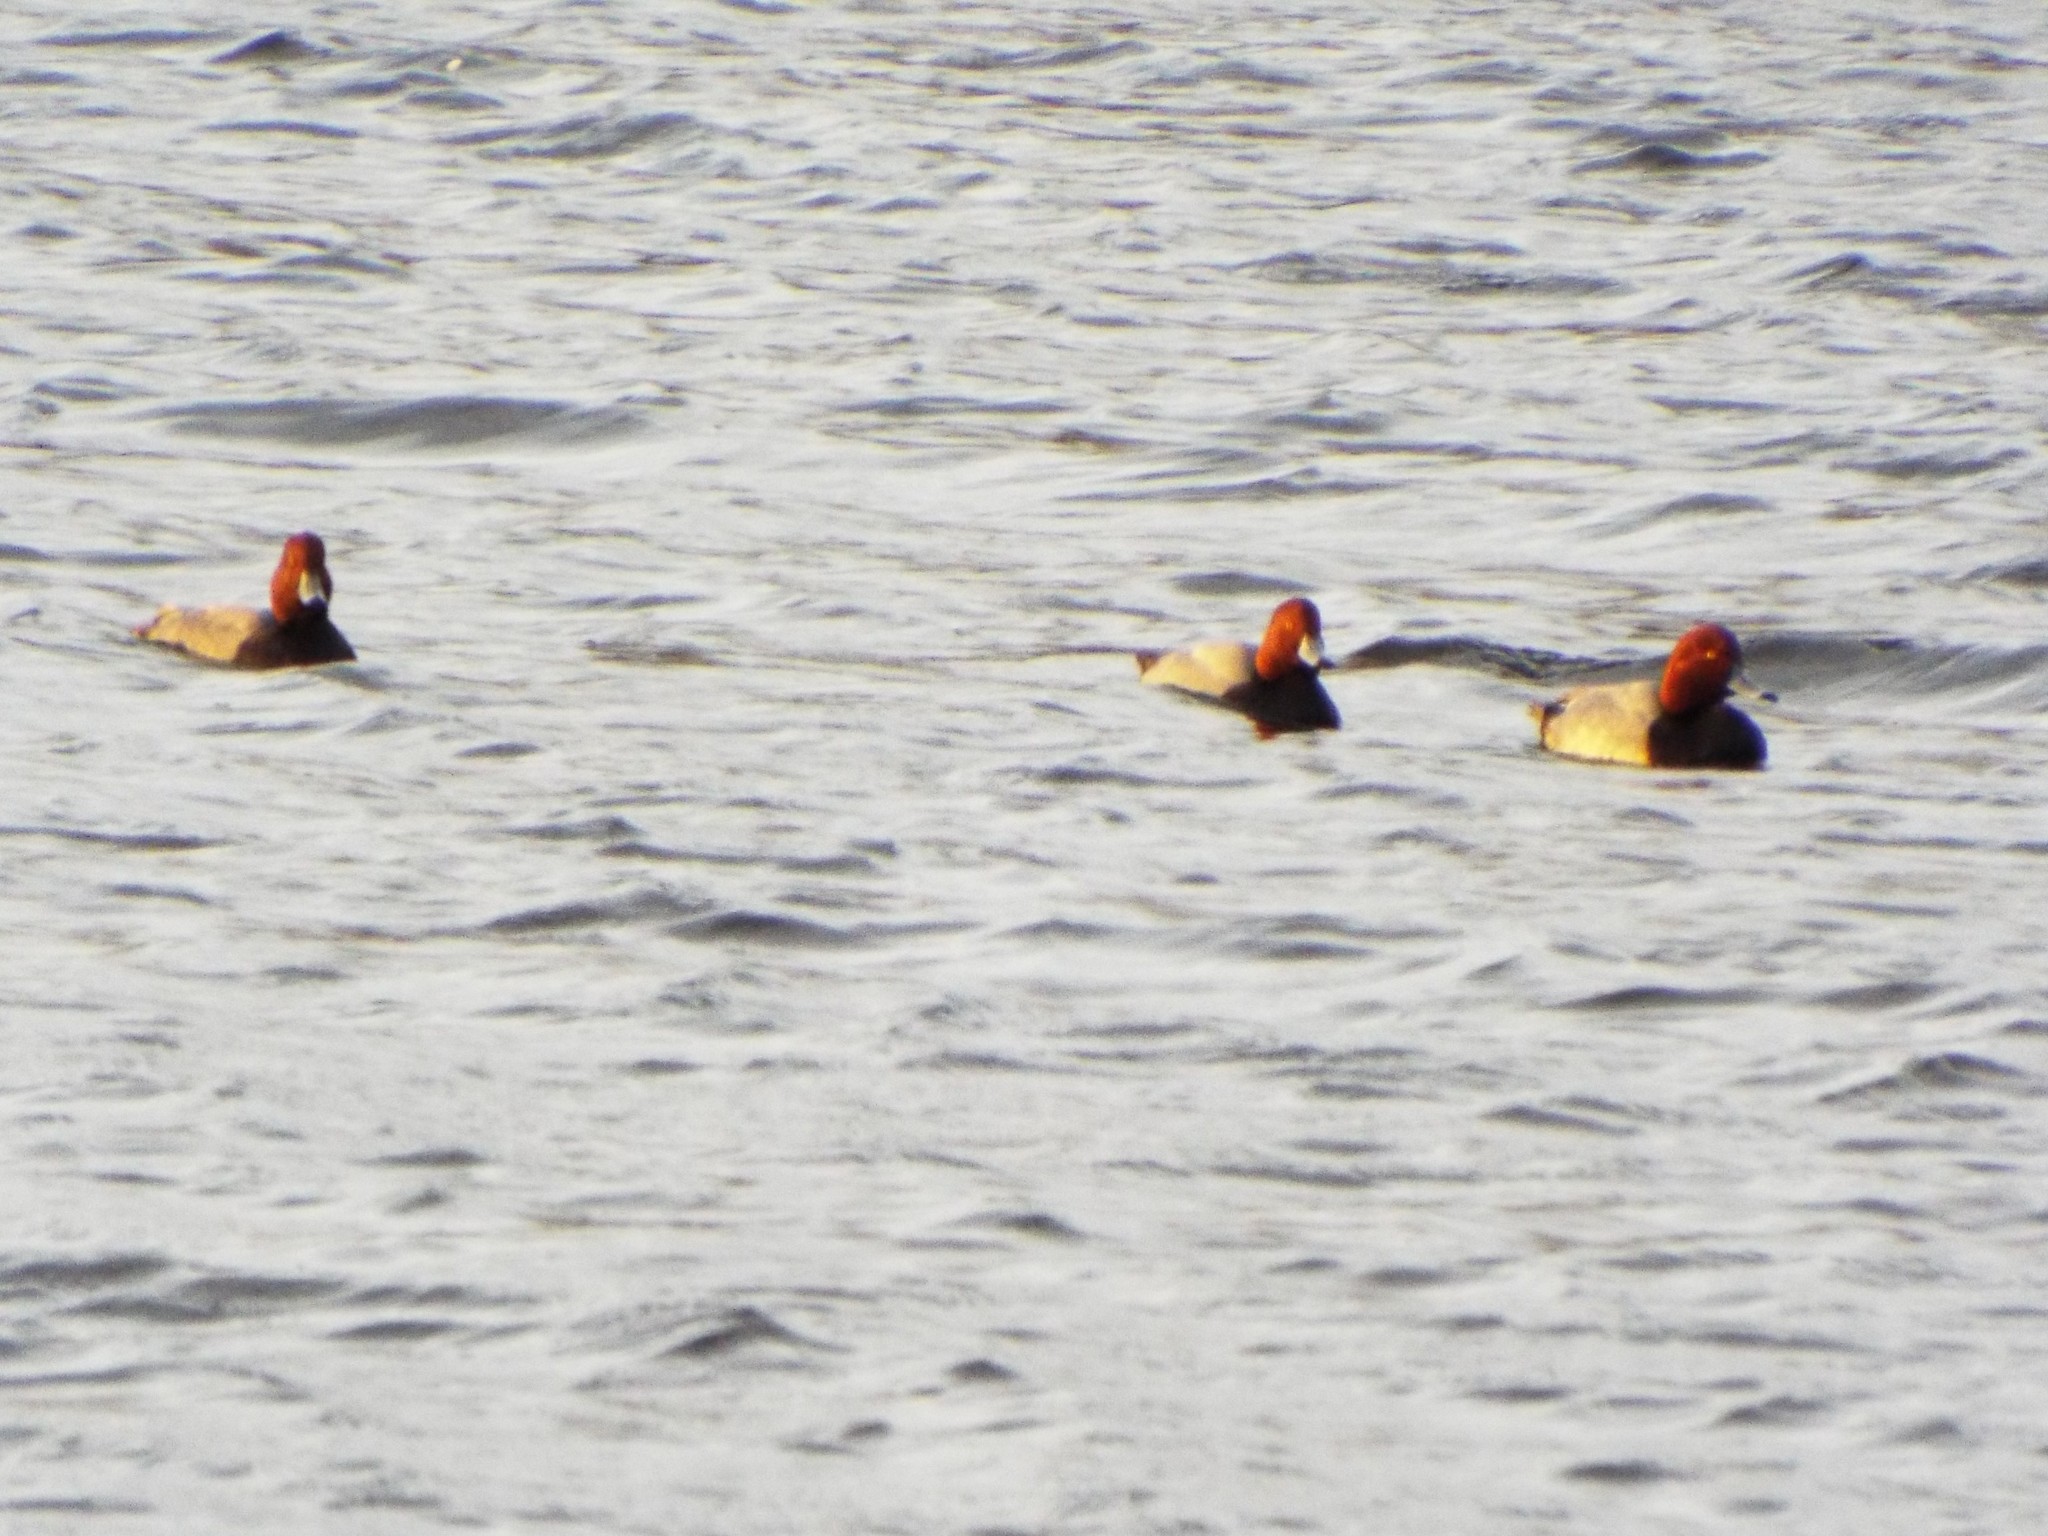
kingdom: Animalia
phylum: Chordata
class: Aves
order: Anseriformes
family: Anatidae
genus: Aythya
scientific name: Aythya americana
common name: Redhead
